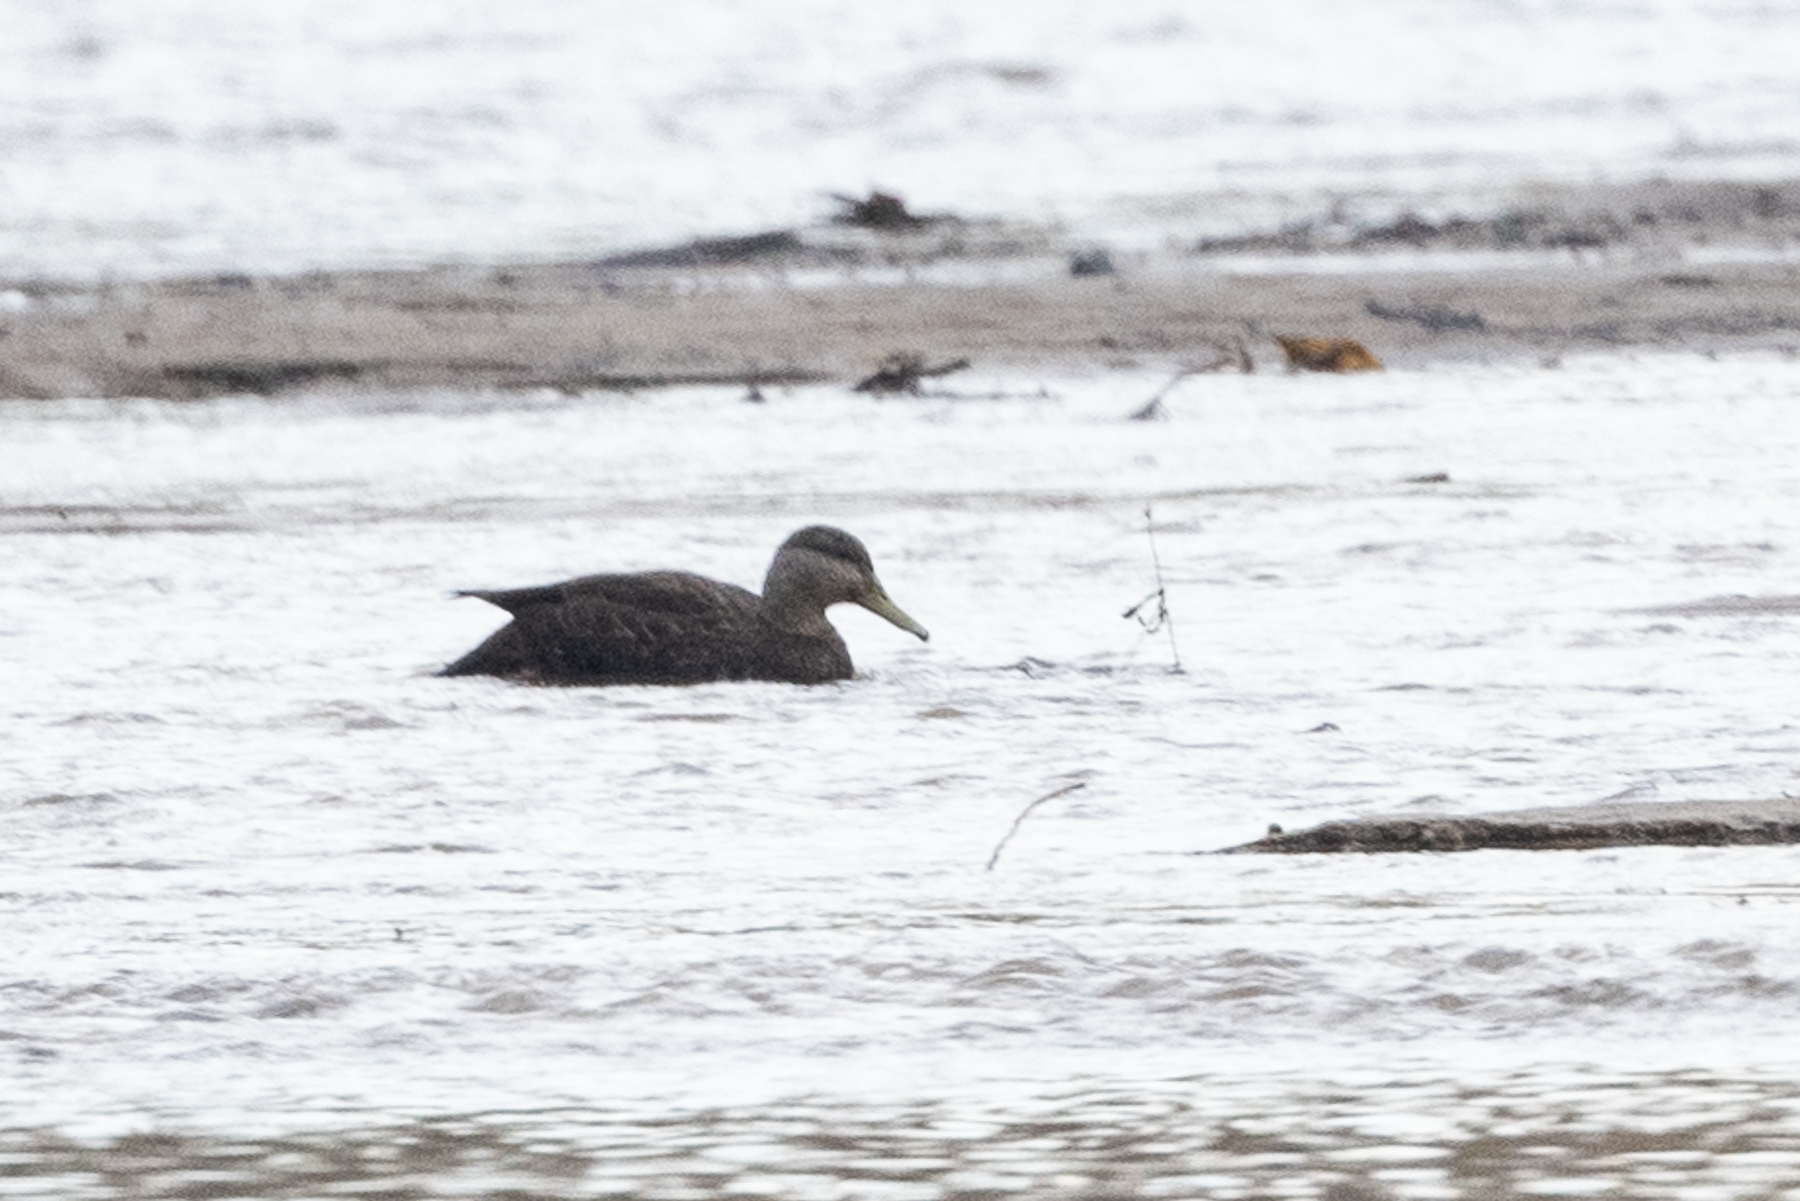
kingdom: Animalia
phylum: Chordata
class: Aves
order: Anseriformes
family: Anatidae
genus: Anas
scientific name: Anas rubripes
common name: American black duck
